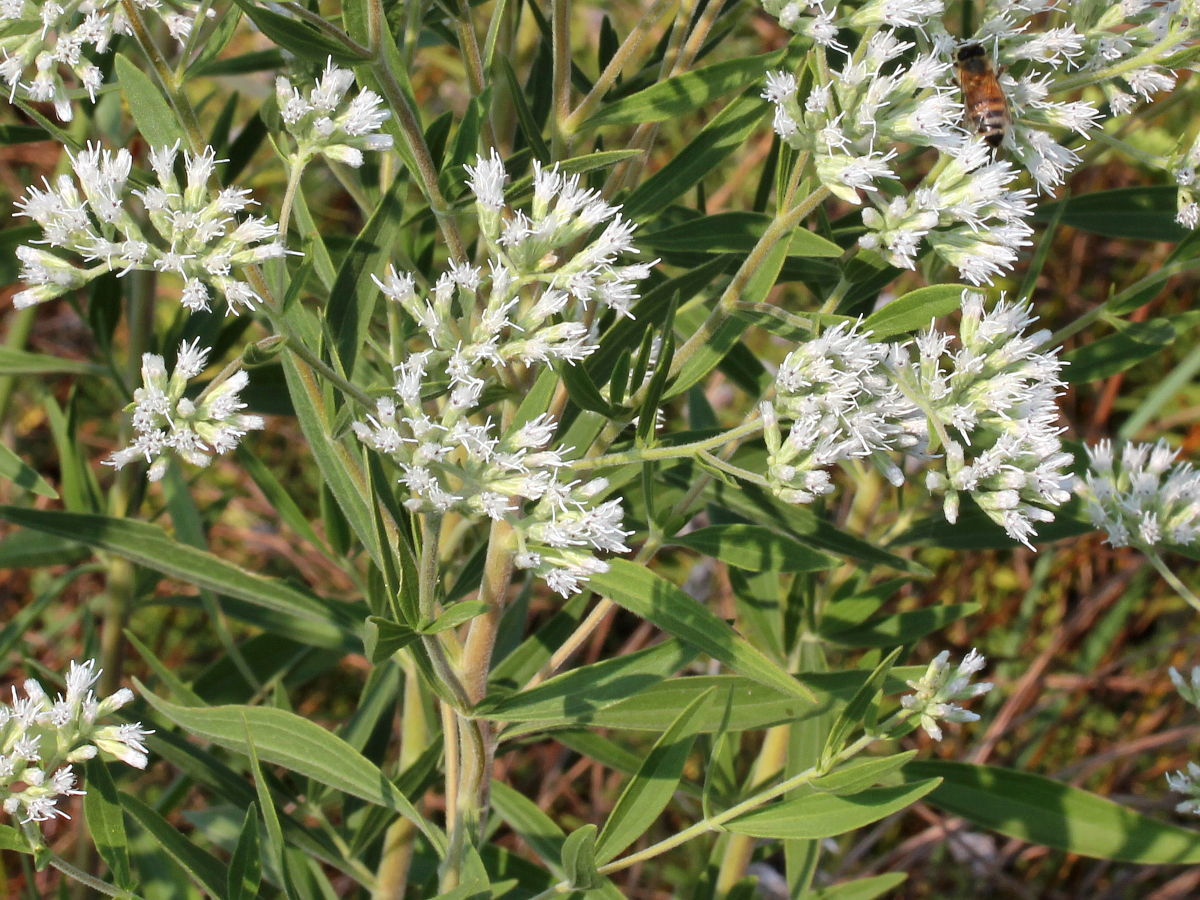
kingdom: Plantae
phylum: Tracheophyta
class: Magnoliopsida
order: Asterales
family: Asteraceae
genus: Eupatorium
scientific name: Eupatorium altissimum
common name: Tall thoroughwort
